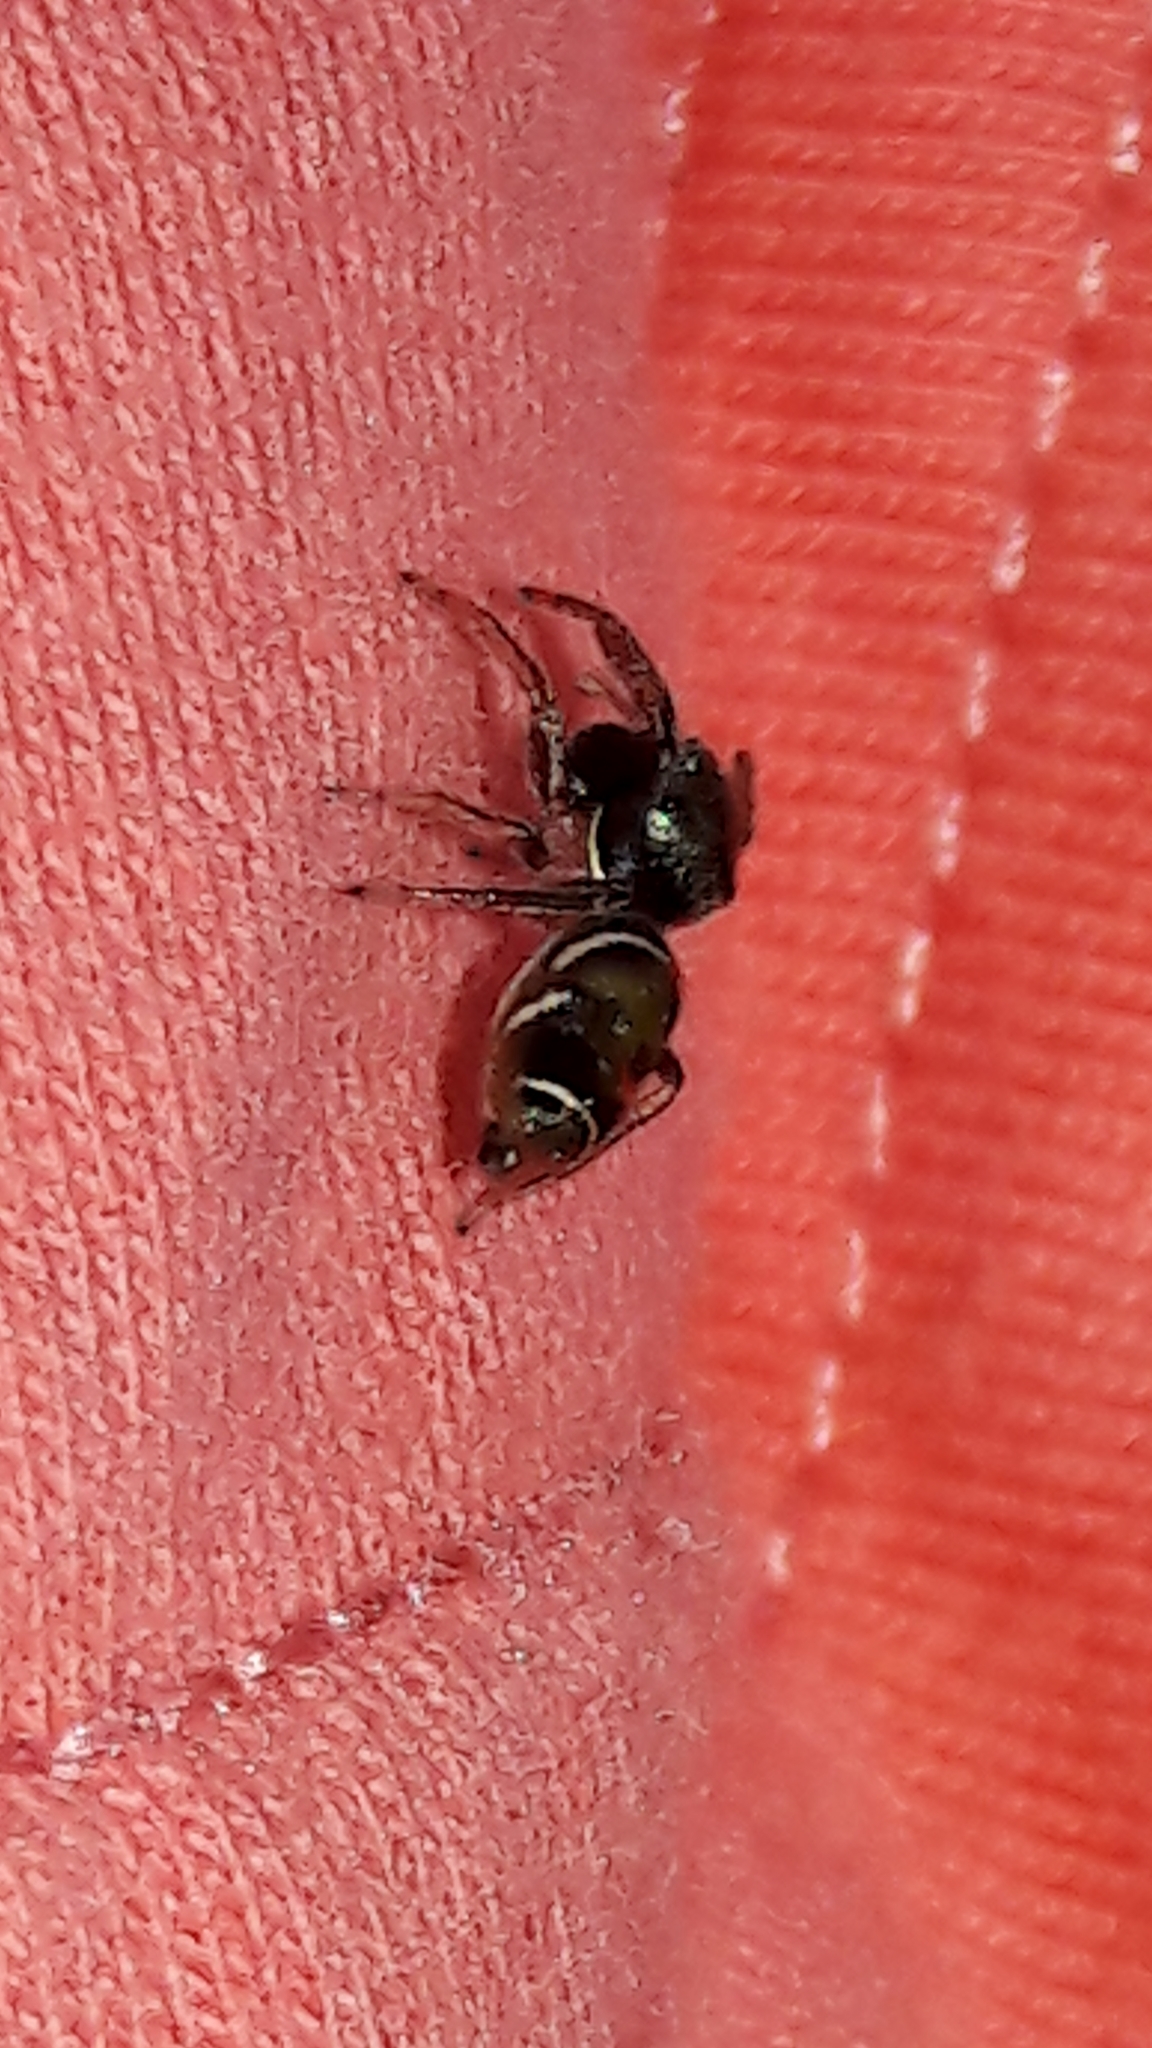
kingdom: Animalia
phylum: Arthropoda
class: Arachnida
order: Araneae
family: Salticidae
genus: Bryantella
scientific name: Bryantella smaragda
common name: Jumping spiders
